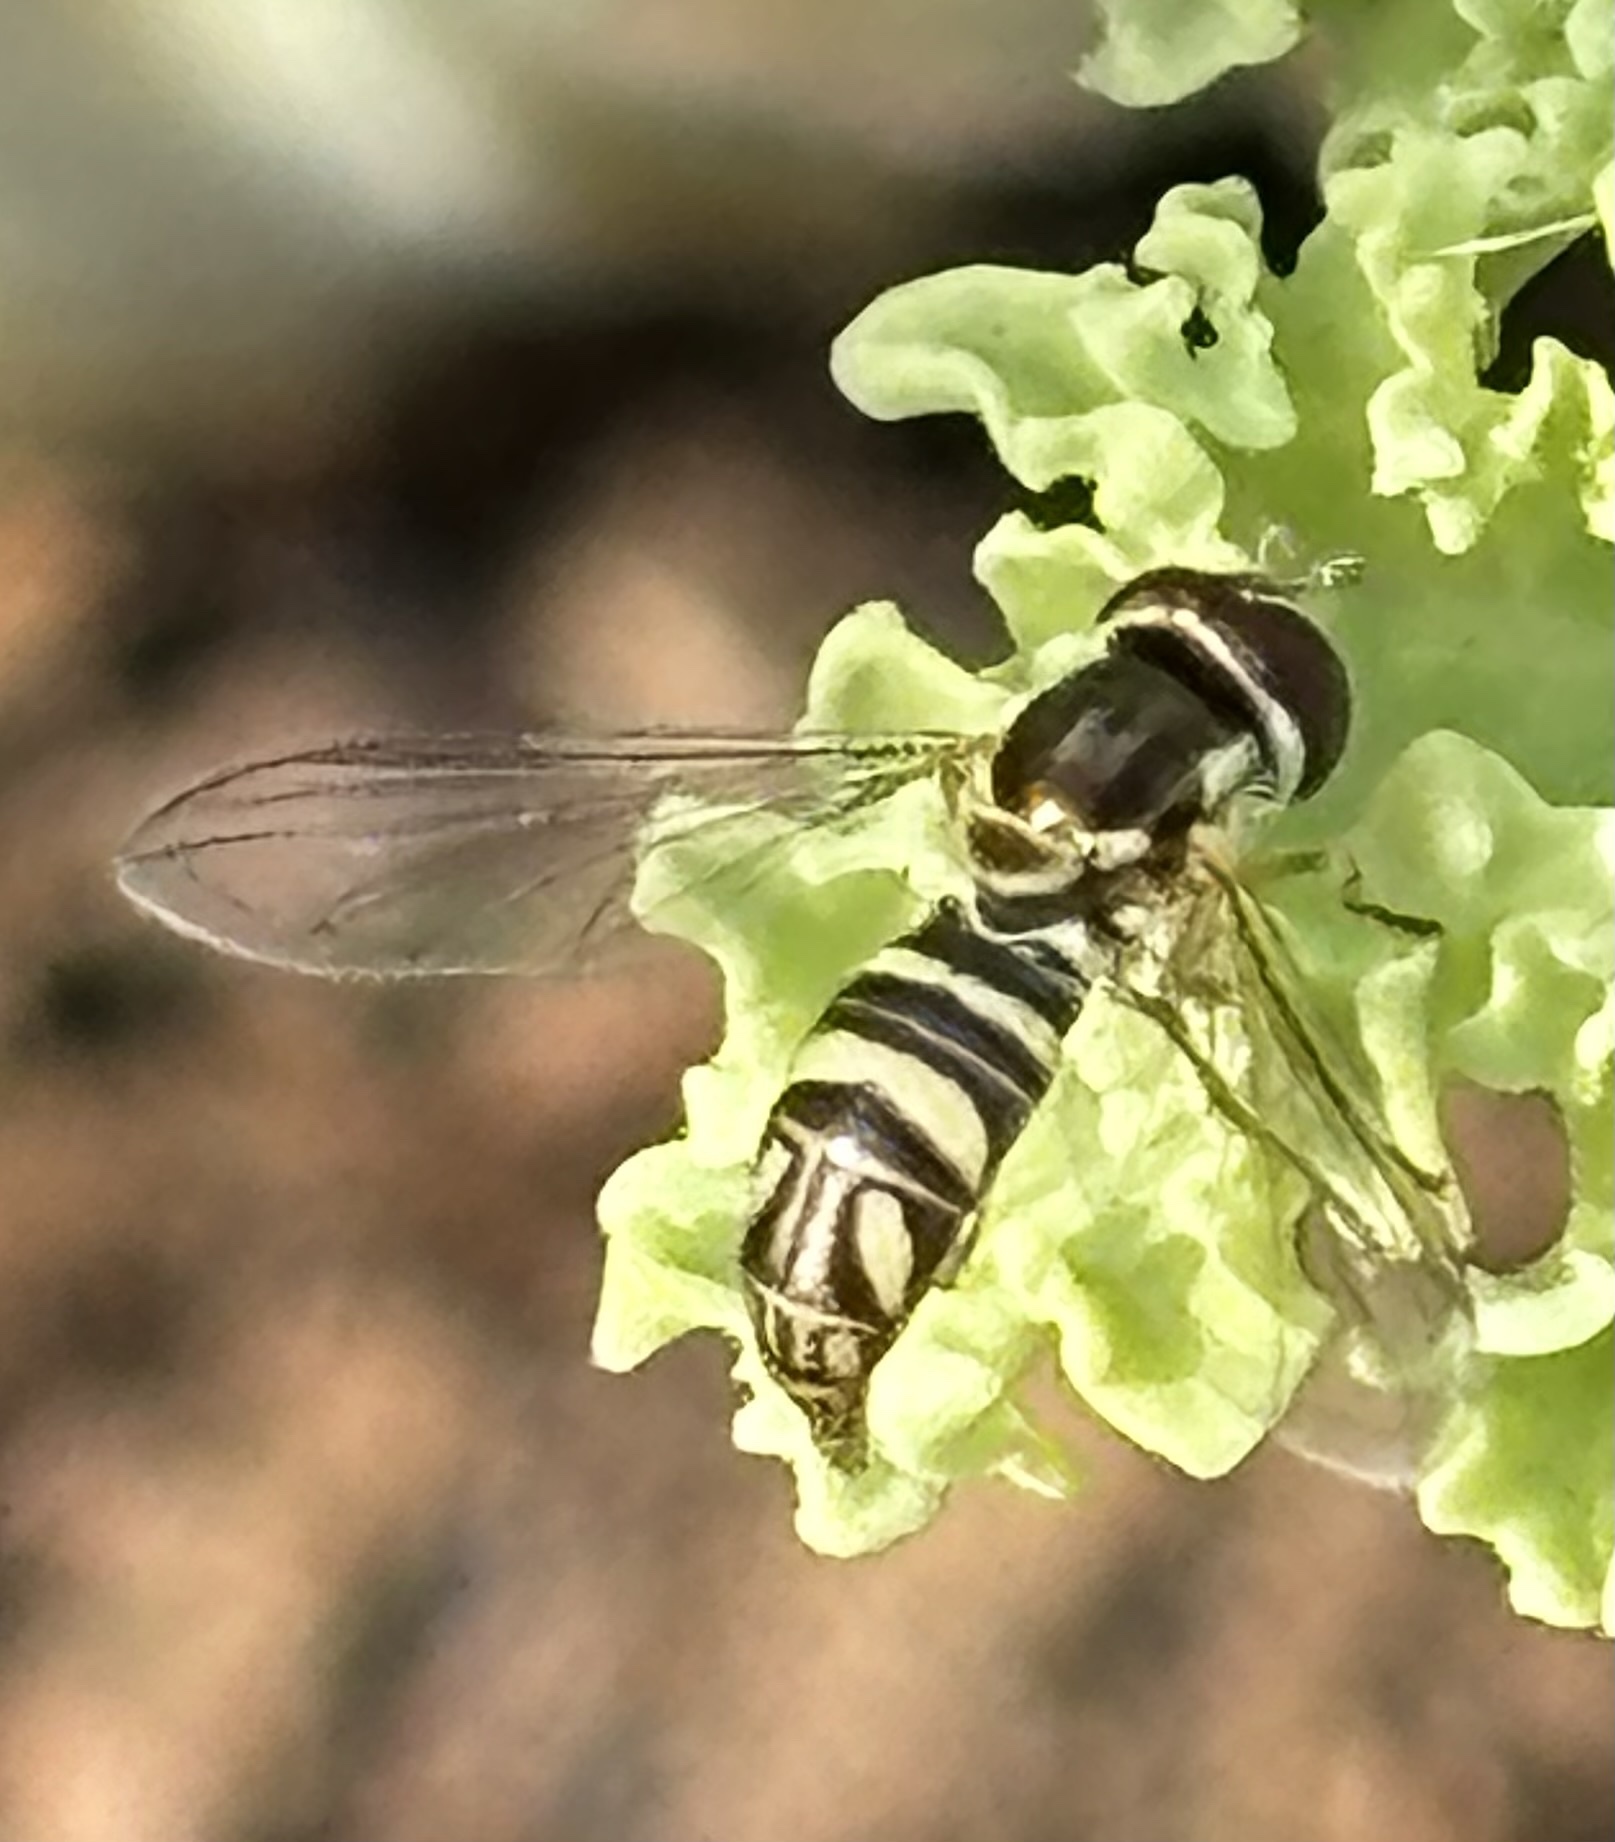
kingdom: Animalia
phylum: Arthropoda
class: Insecta
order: Diptera
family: Syrphidae
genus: Allograpta
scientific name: Allograpta obliqua
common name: Common oblique syrphid
